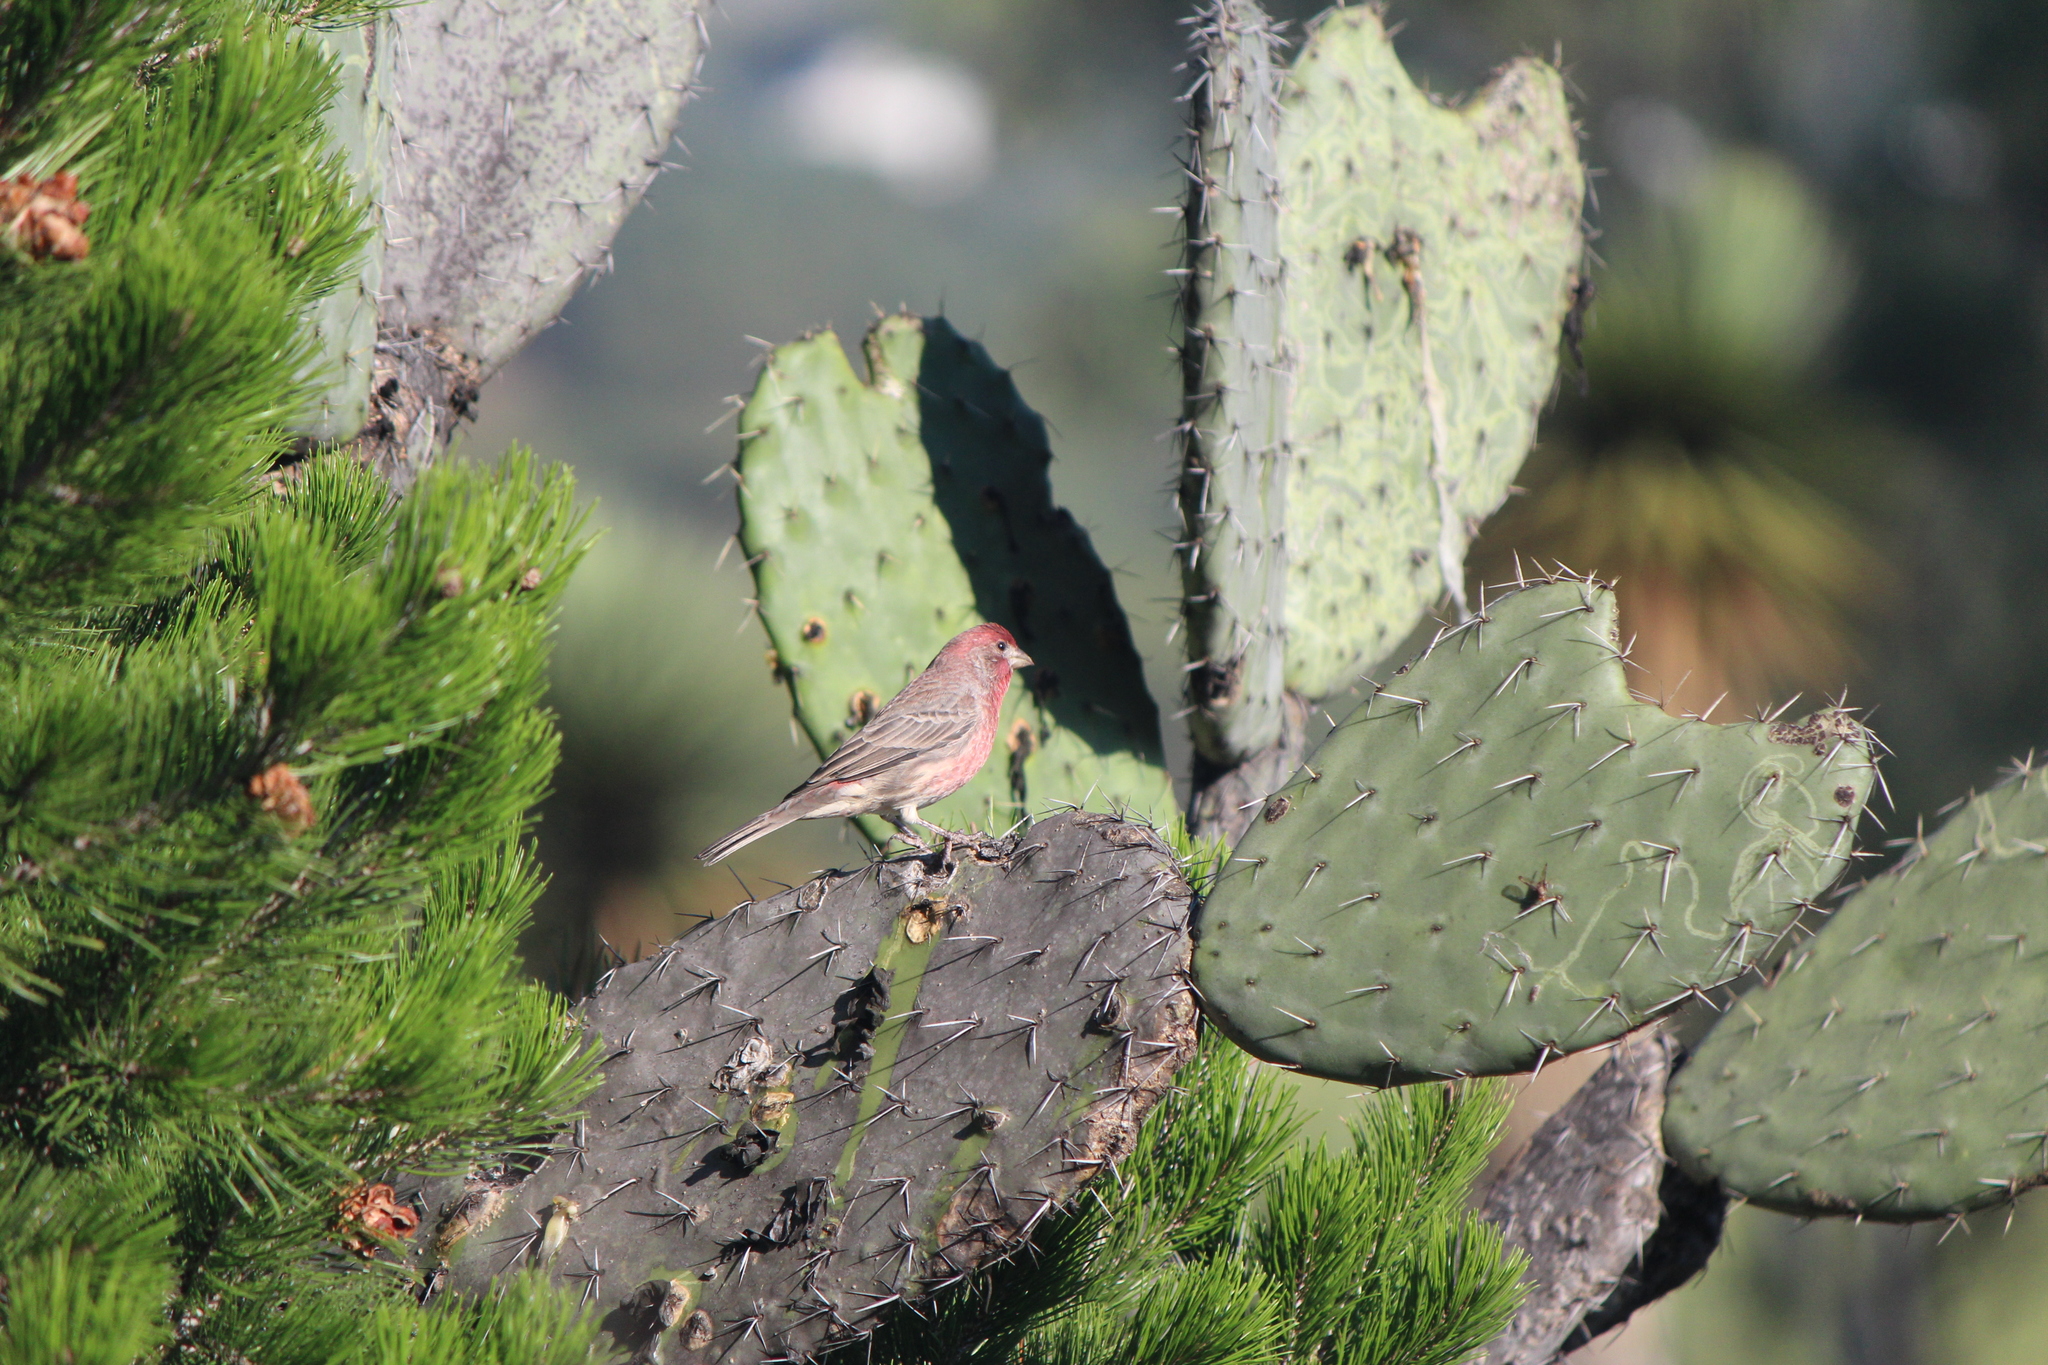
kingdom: Animalia
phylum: Chordata
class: Aves
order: Passeriformes
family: Fringillidae
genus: Haemorhous
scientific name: Haemorhous mexicanus
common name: House finch
